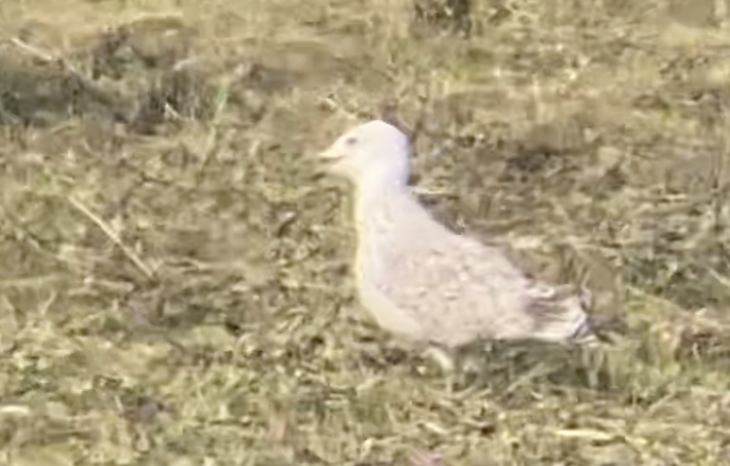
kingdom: Animalia
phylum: Chordata
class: Aves
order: Charadriiformes
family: Laridae
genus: Larus
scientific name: Larus michahellis
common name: Yellow-legged gull
